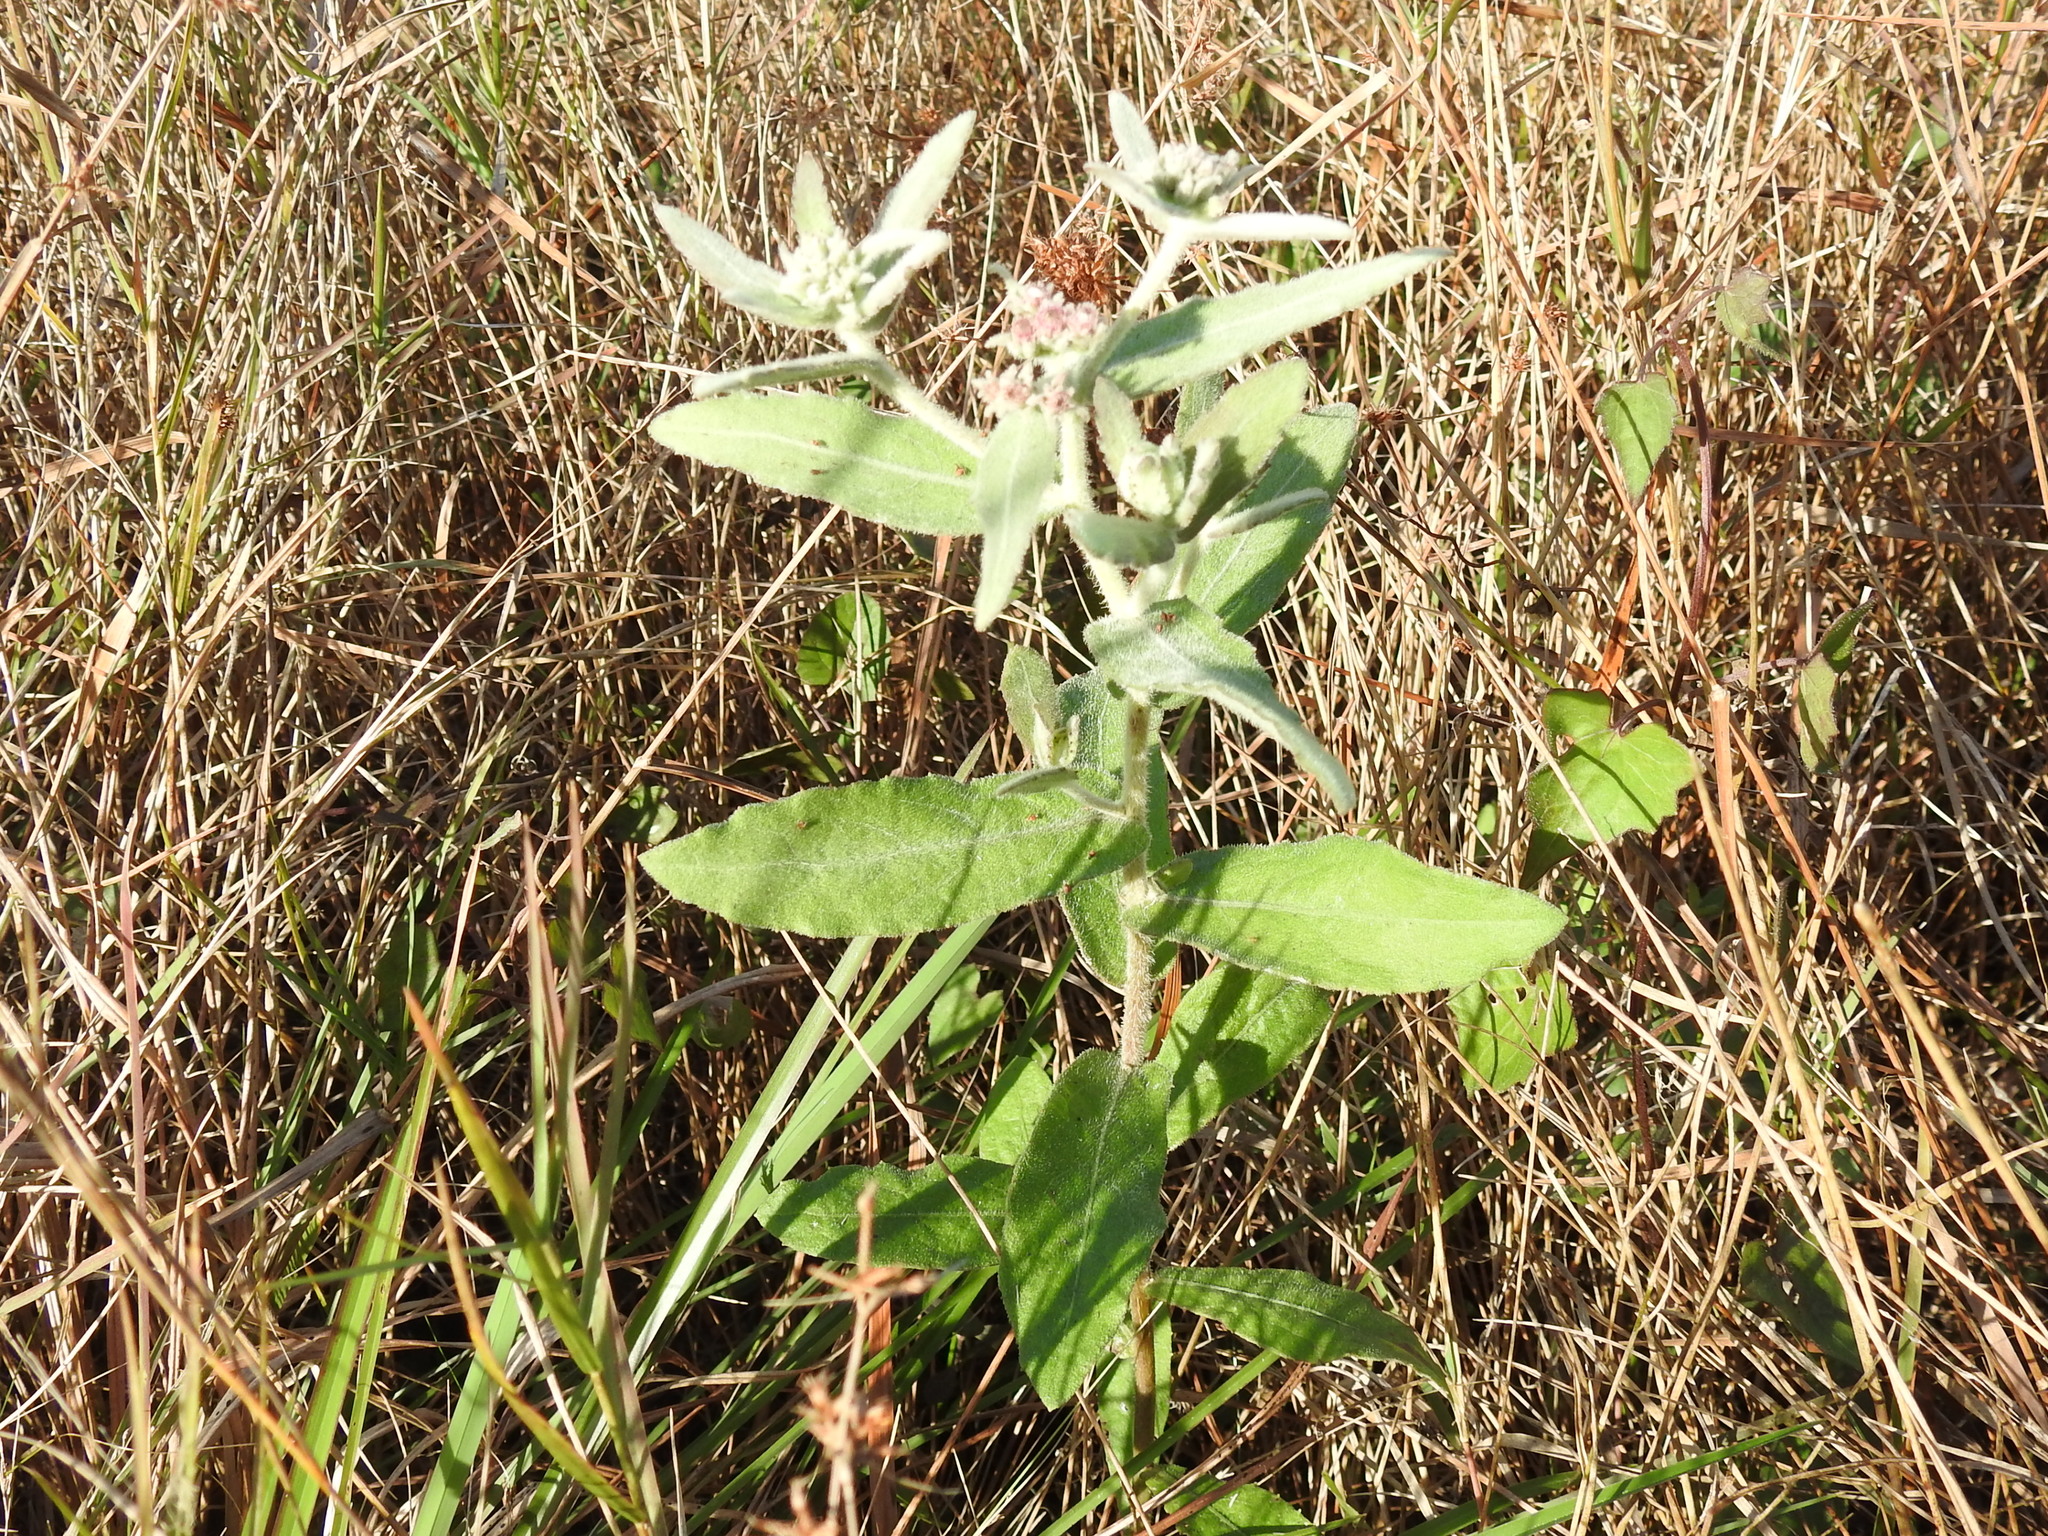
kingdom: Plantae
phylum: Tracheophyta
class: Magnoliopsida
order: Asterales
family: Asteraceae
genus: Pluchea
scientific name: Pluchea baccharis
